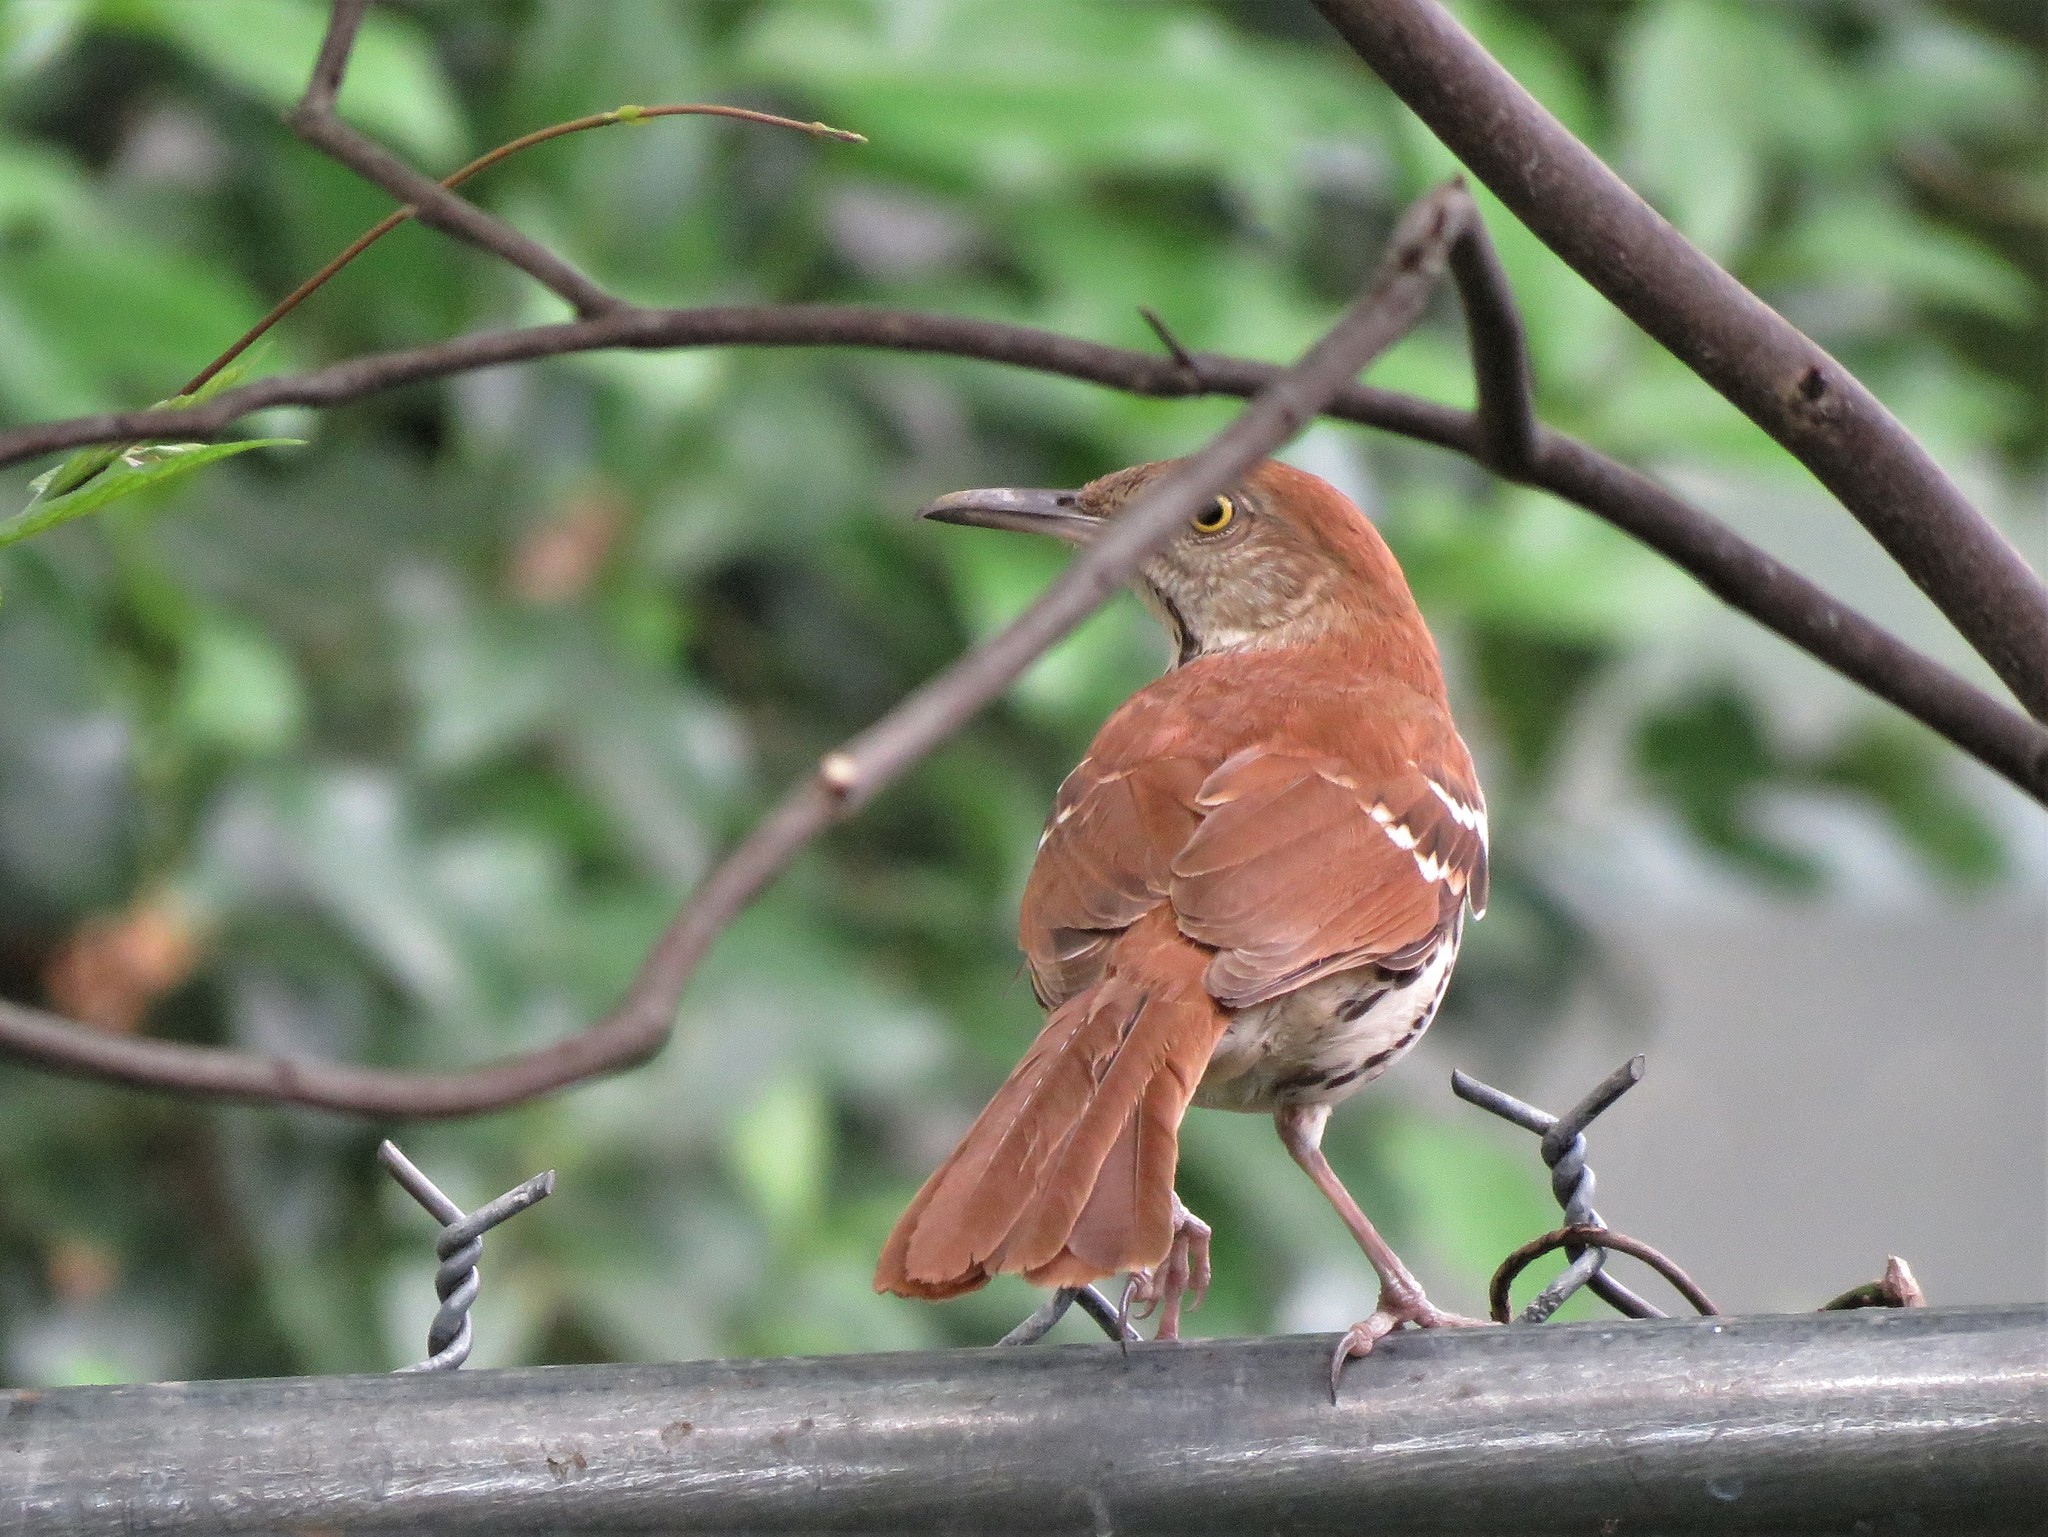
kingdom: Animalia
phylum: Chordata
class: Aves
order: Passeriformes
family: Mimidae
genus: Toxostoma
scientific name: Toxostoma rufum
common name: Brown thrasher
